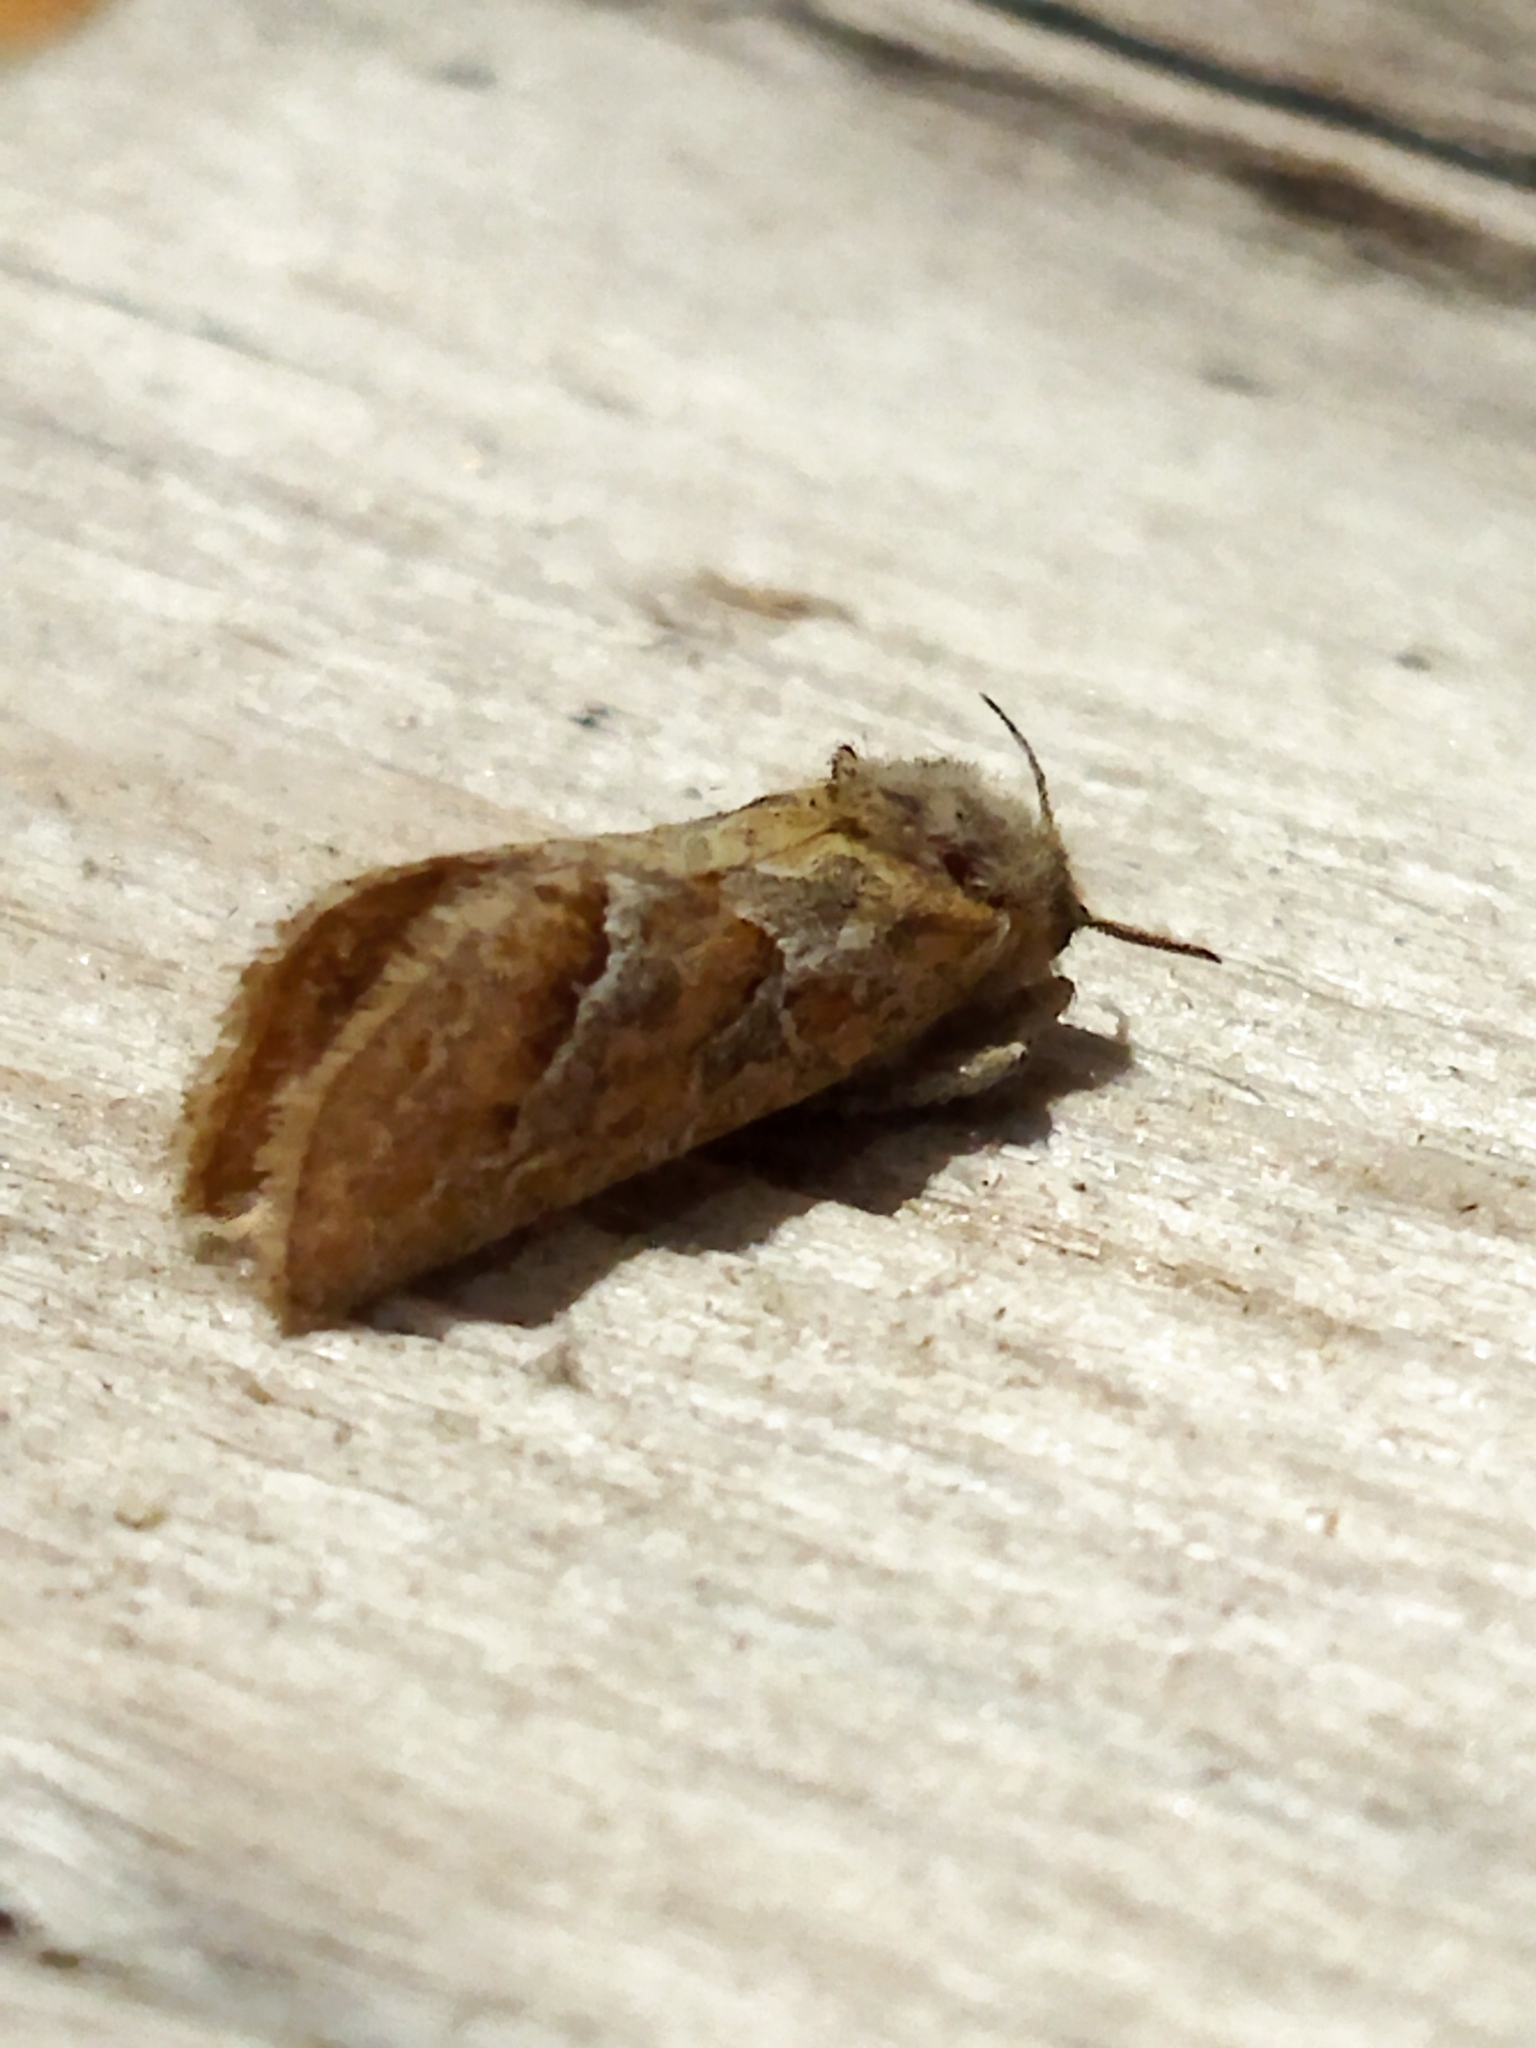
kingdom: Animalia
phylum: Arthropoda
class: Insecta
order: Lepidoptera
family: Hepialidae
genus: Triodia
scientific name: Triodia amasinus
